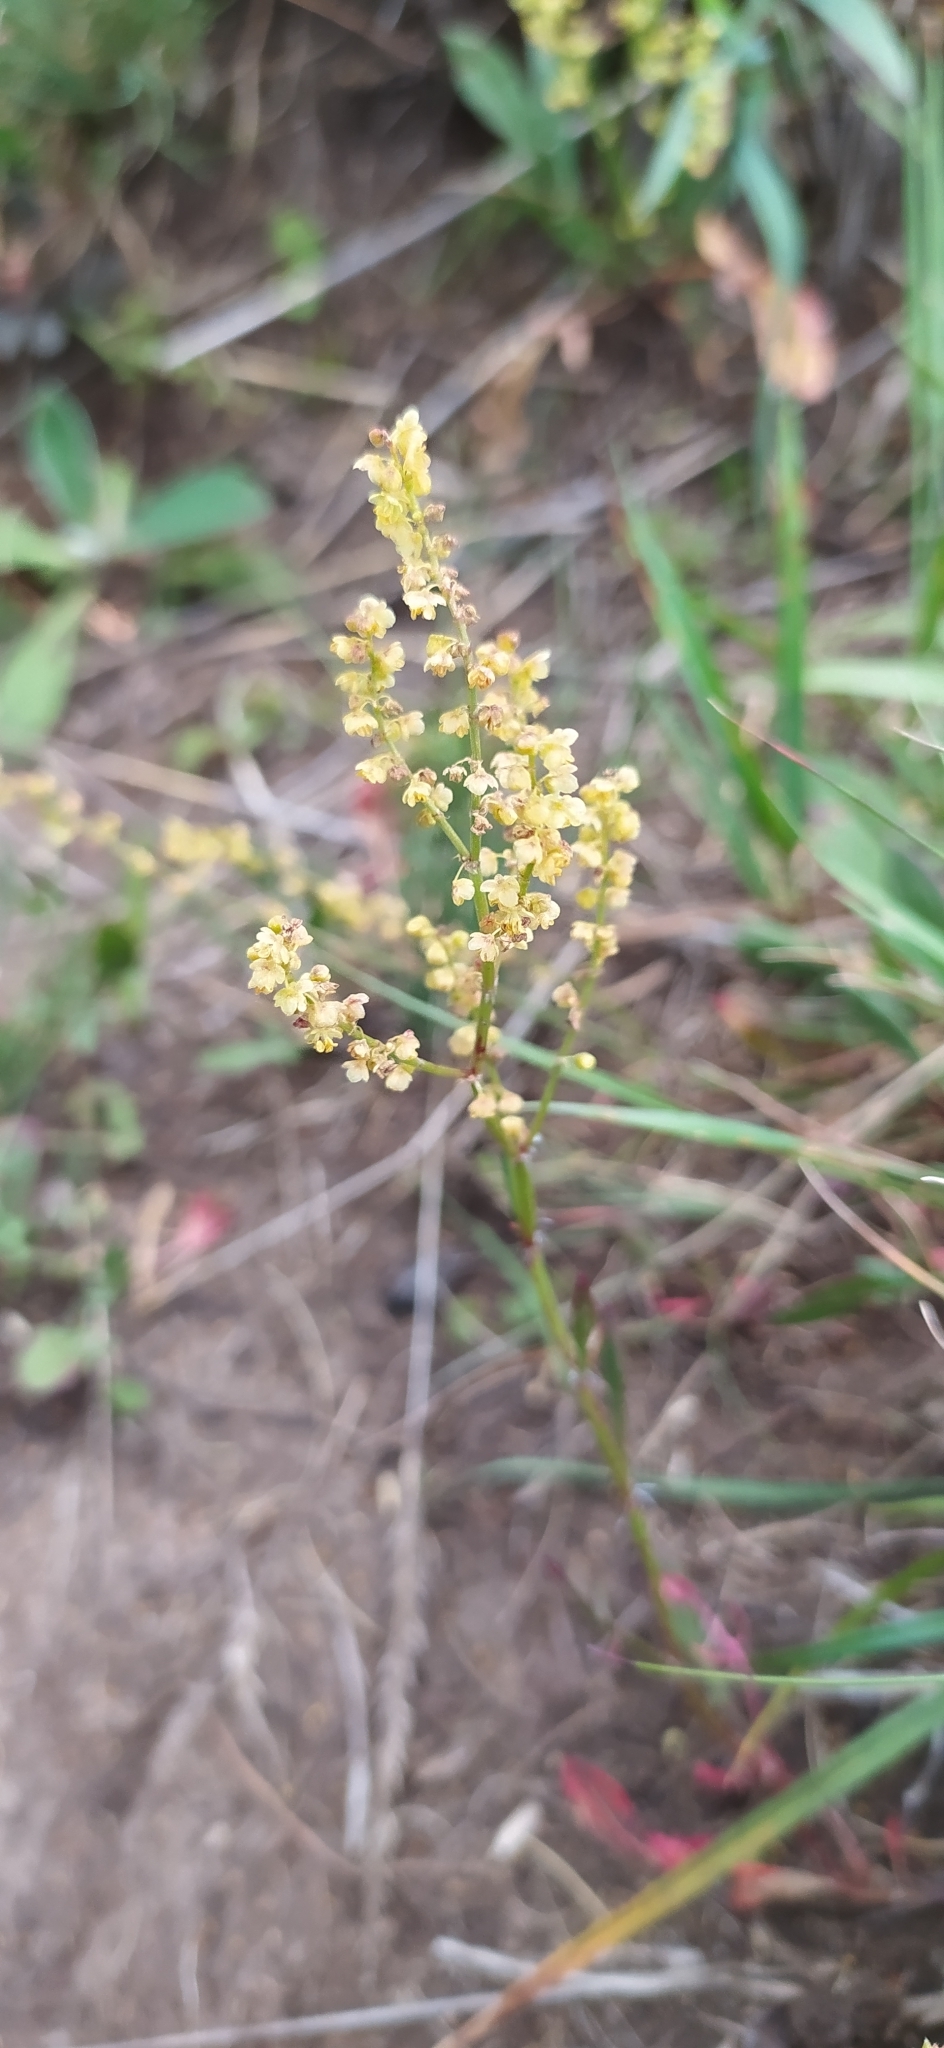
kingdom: Plantae
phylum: Tracheophyta
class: Magnoliopsida
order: Caryophyllales
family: Polygonaceae
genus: Rumex
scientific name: Rumex acetosella
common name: Common sheep sorrel
